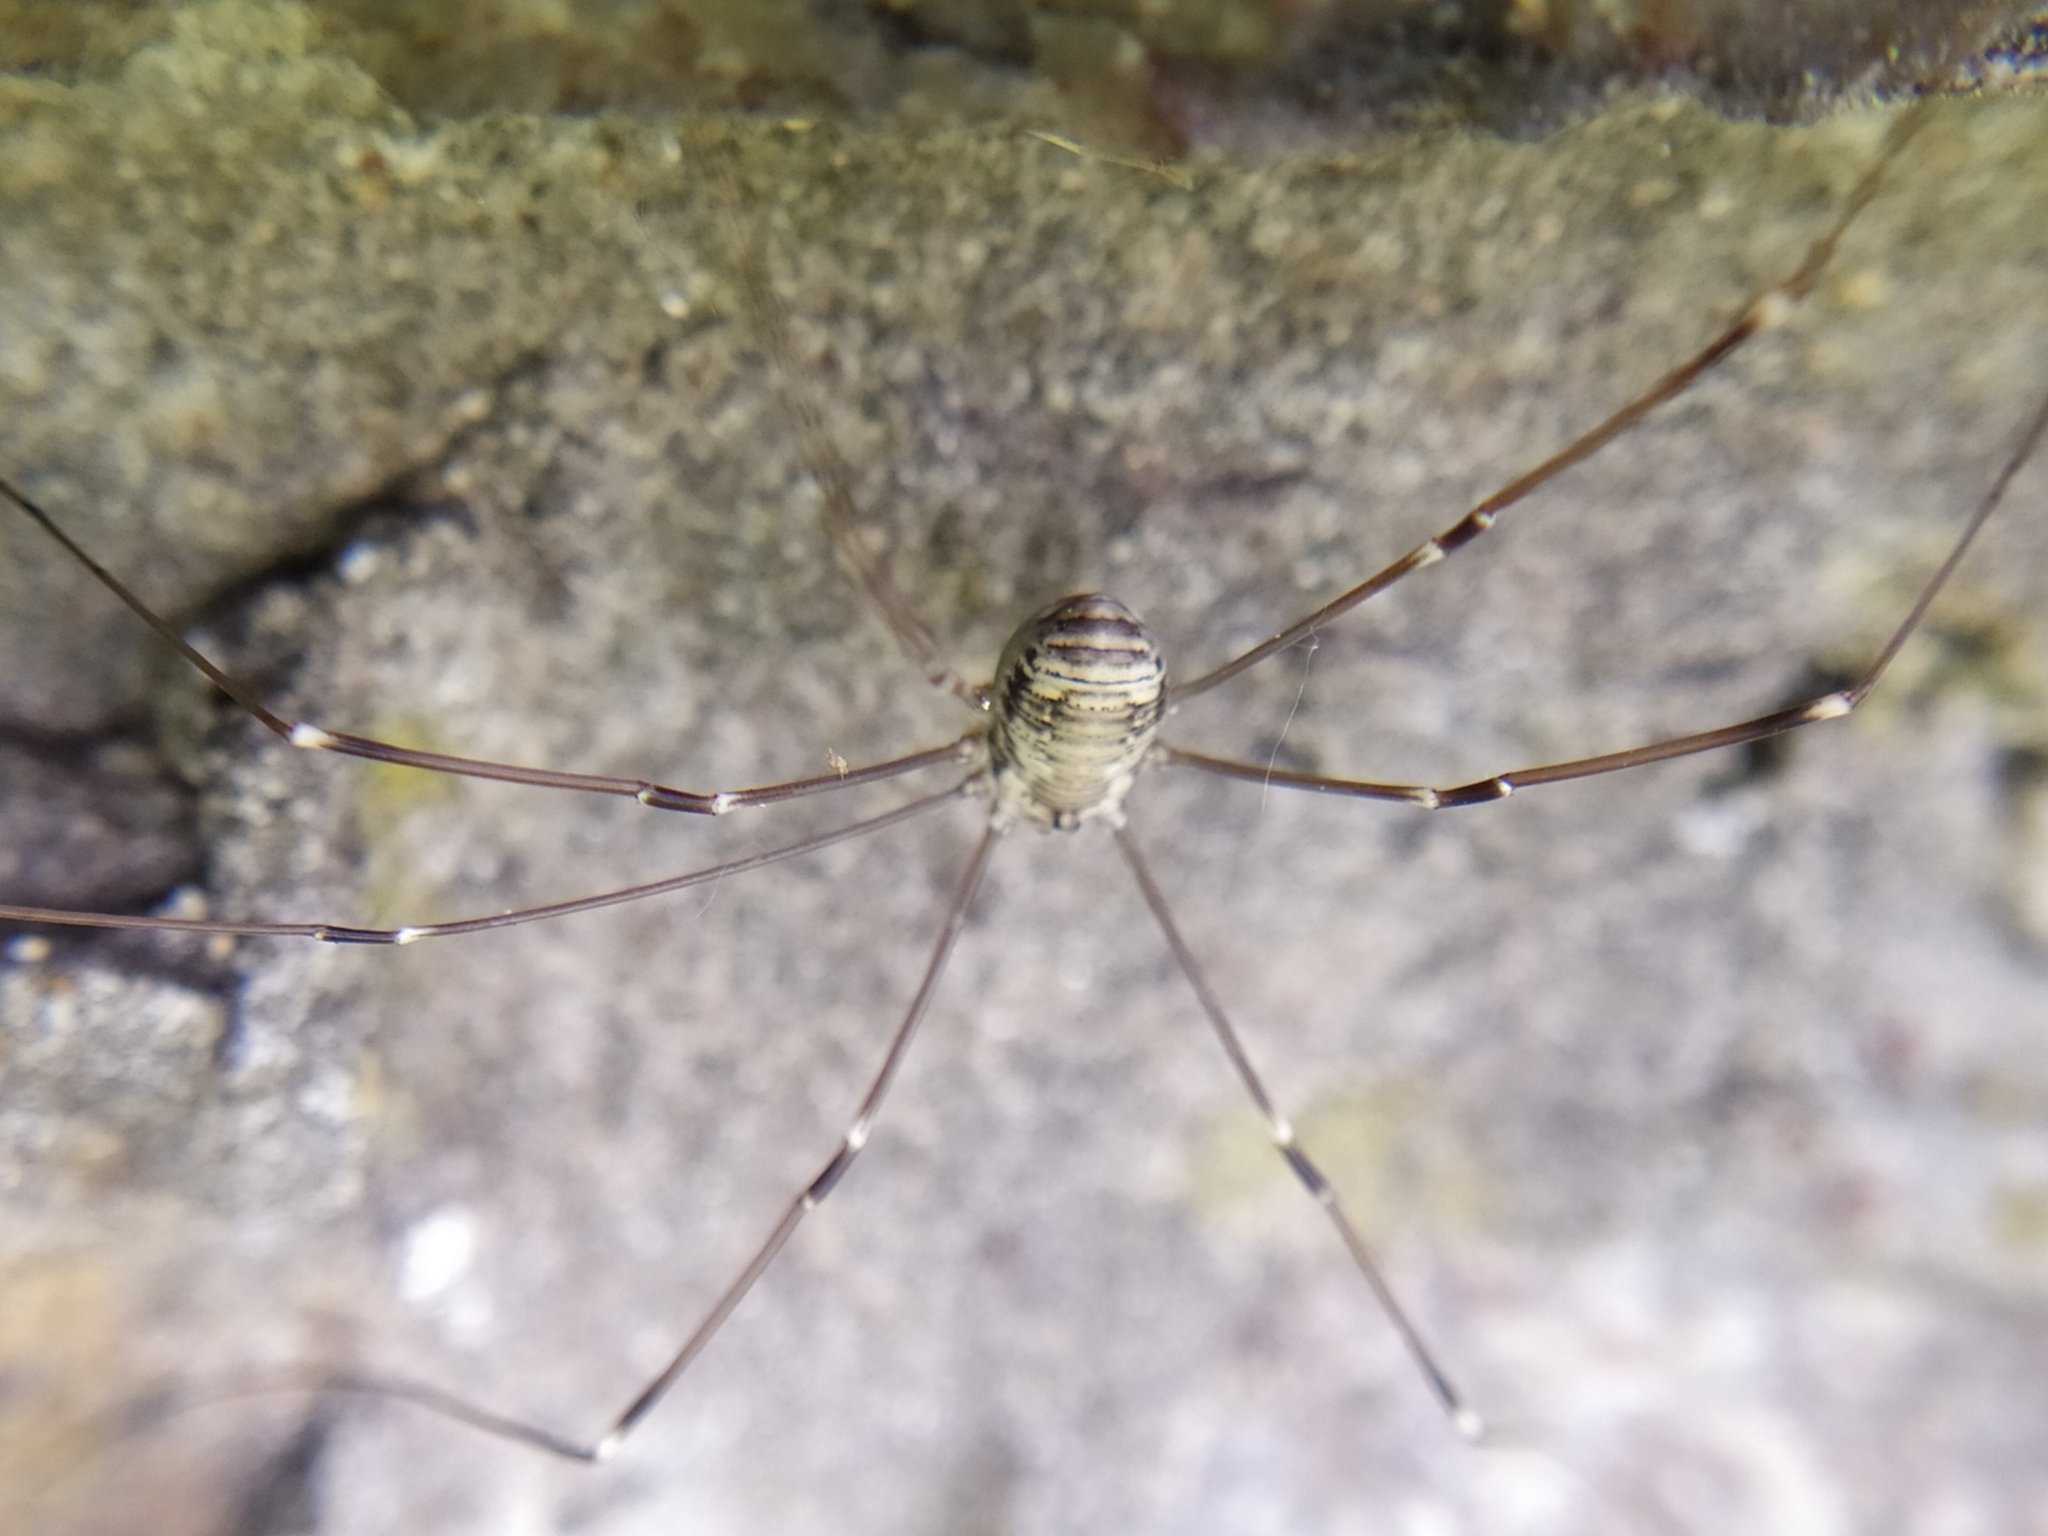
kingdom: Animalia
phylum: Arthropoda
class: Arachnida
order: Opiliones
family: Sclerosomatidae
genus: Leiobunum
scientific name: Leiobunum limbatum
